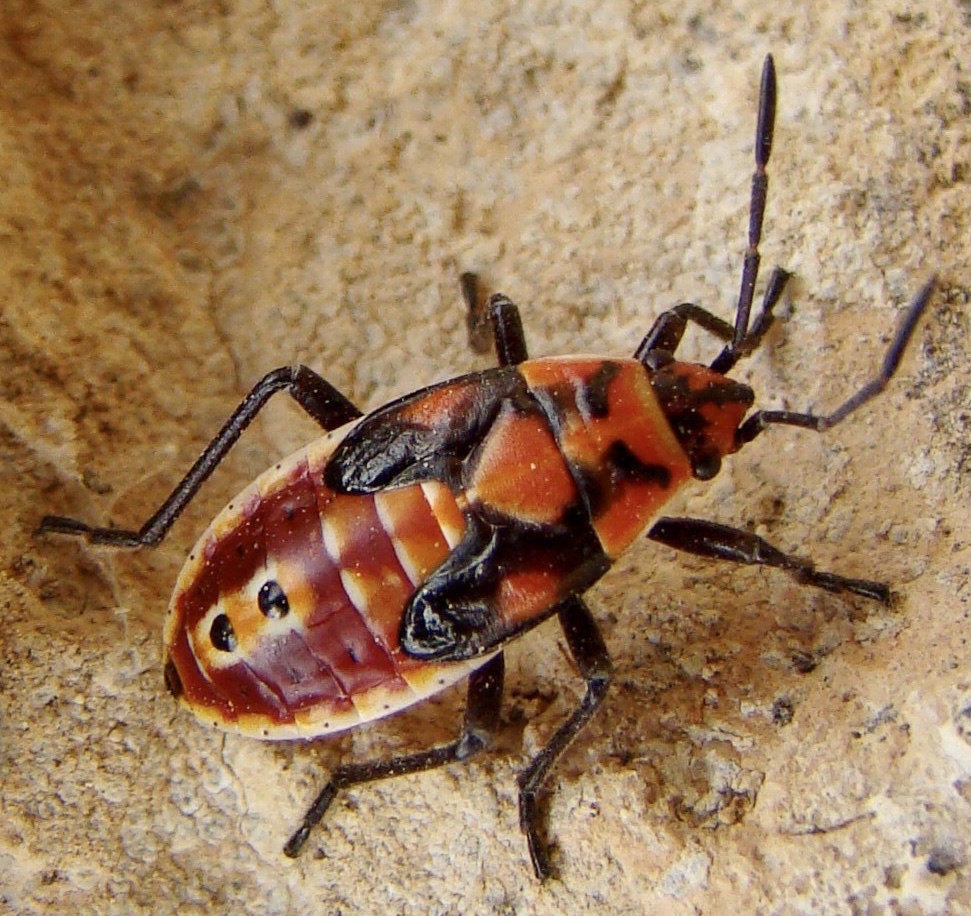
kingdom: Animalia
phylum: Arthropoda
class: Insecta
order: Hemiptera
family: Lygaeidae
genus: Spilostethus
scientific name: Spilostethus pandurus
